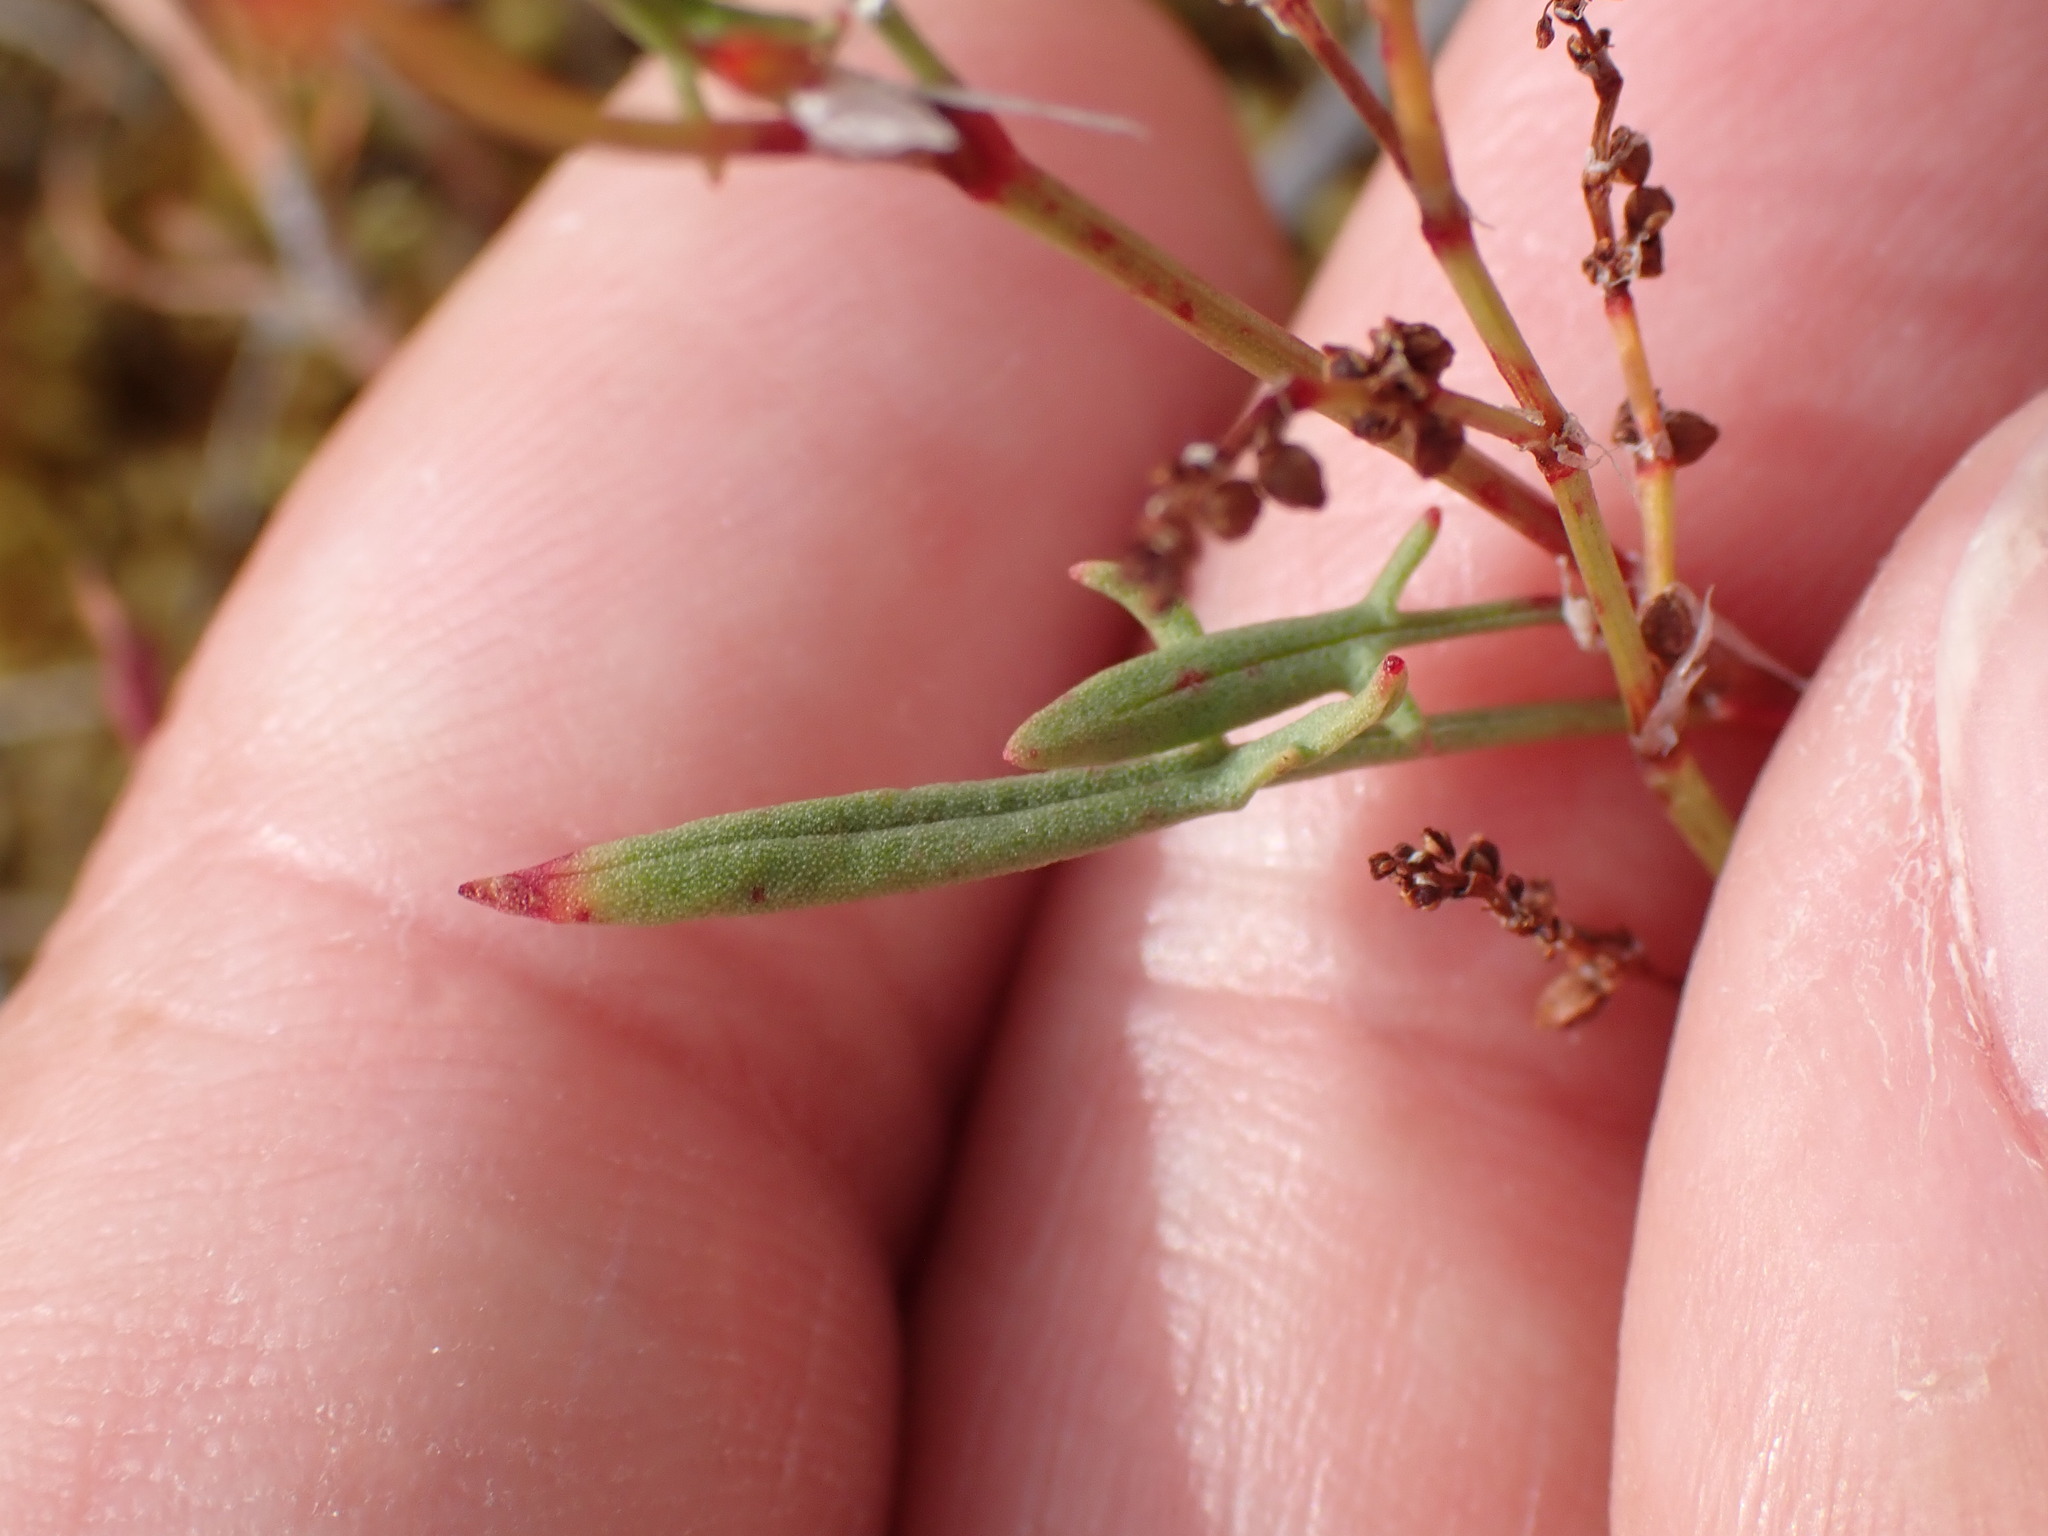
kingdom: Plantae
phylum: Tracheophyta
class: Magnoliopsida
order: Caryophyllales
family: Polygonaceae
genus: Rumex
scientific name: Rumex acetosella
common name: Common sheep sorrel
